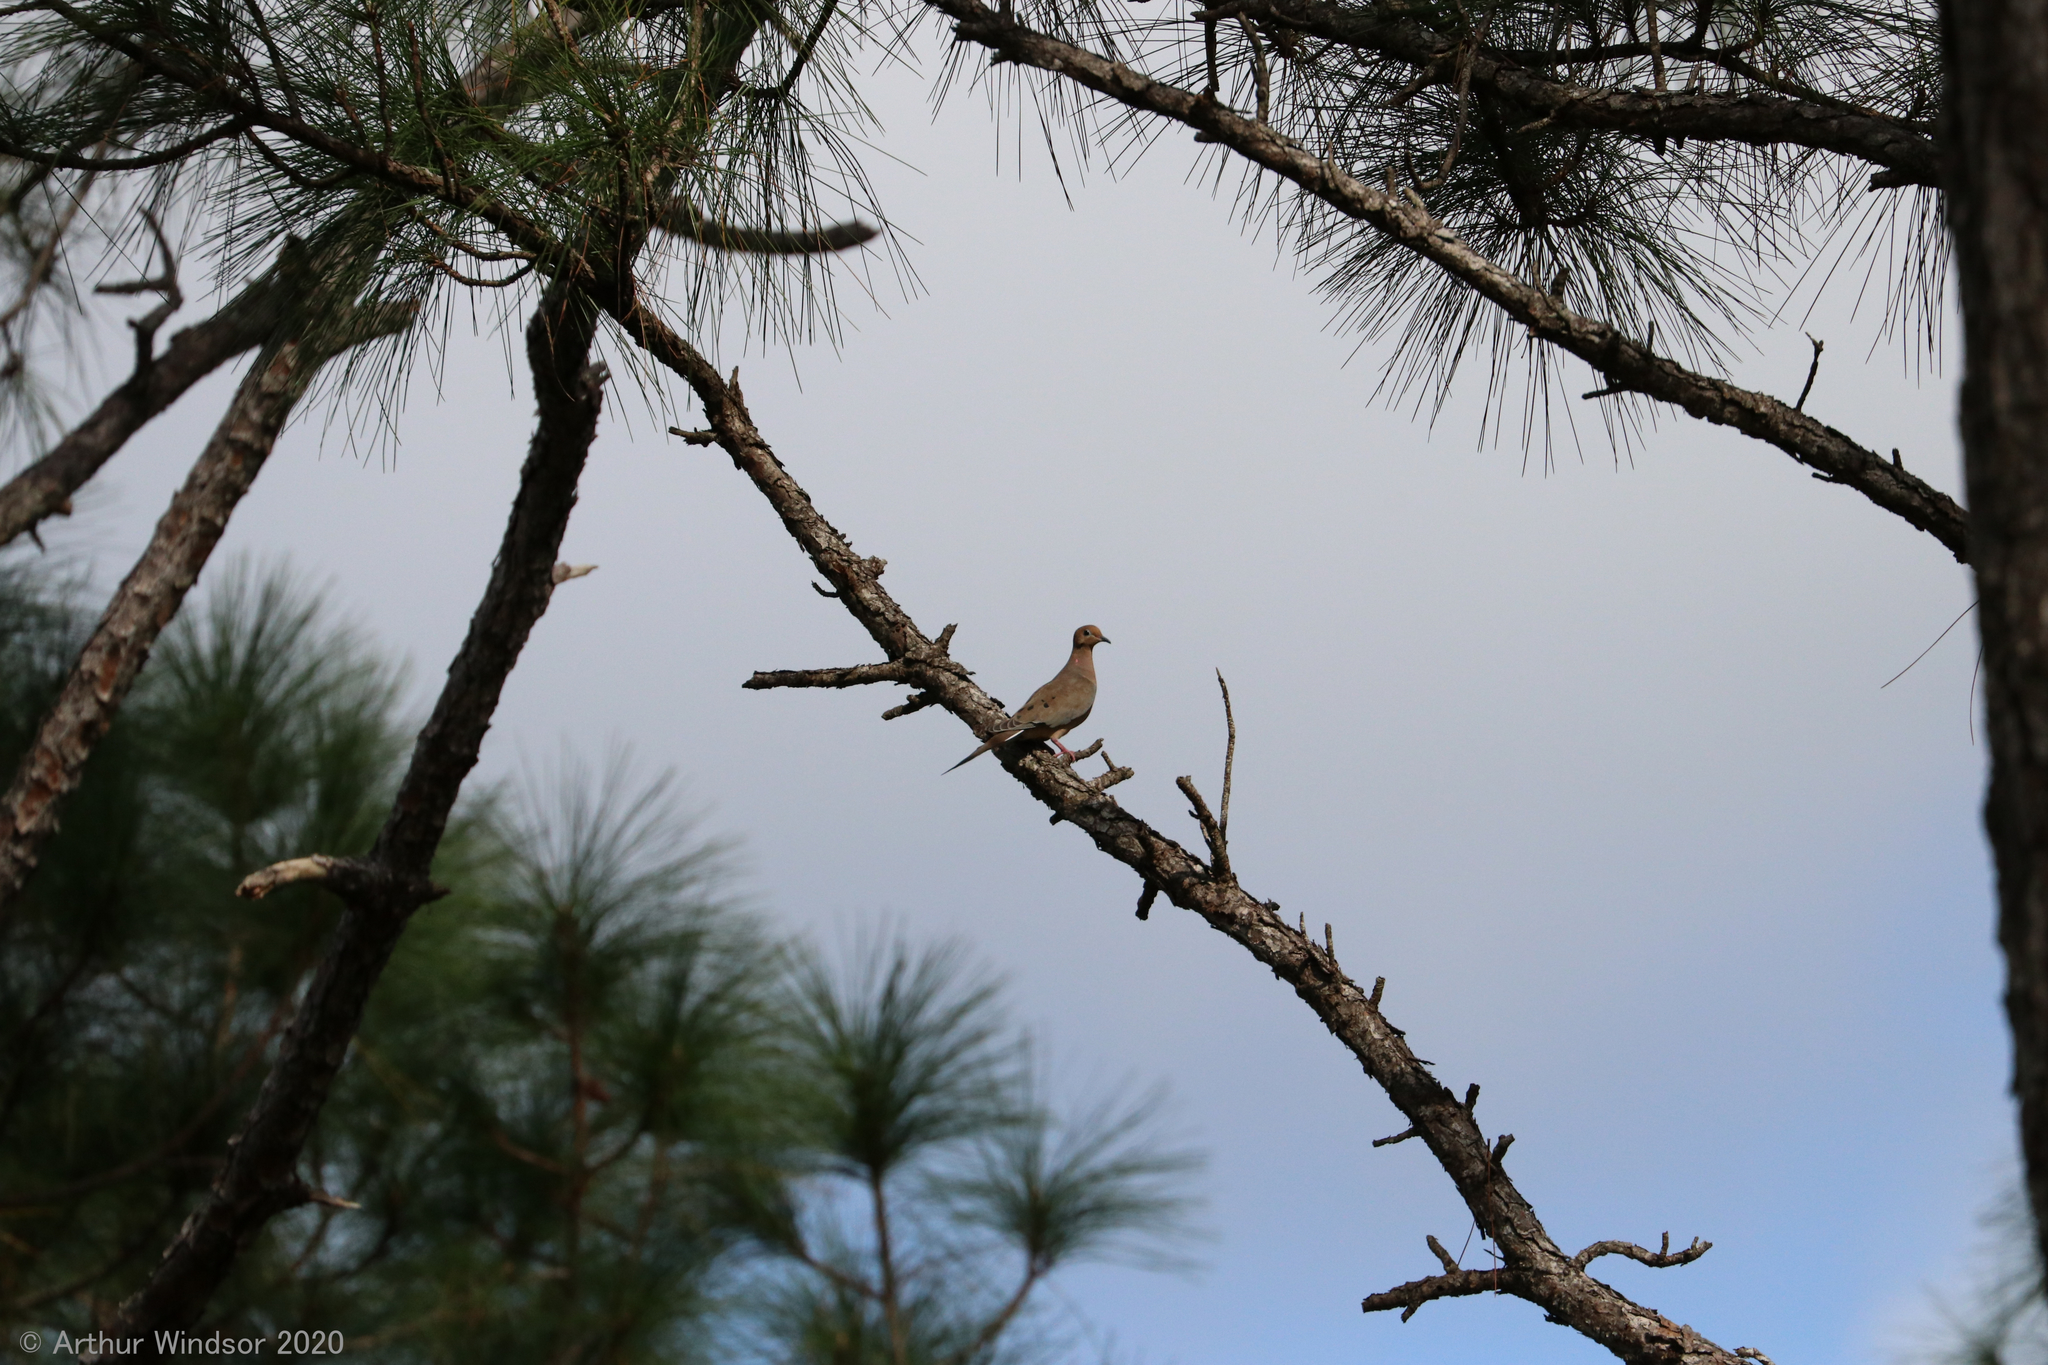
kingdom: Animalia
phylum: Chordata
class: Aves
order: Columbiformes
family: Columbidae
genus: Zenaida
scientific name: Zenaida macroura
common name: Mourning dove
